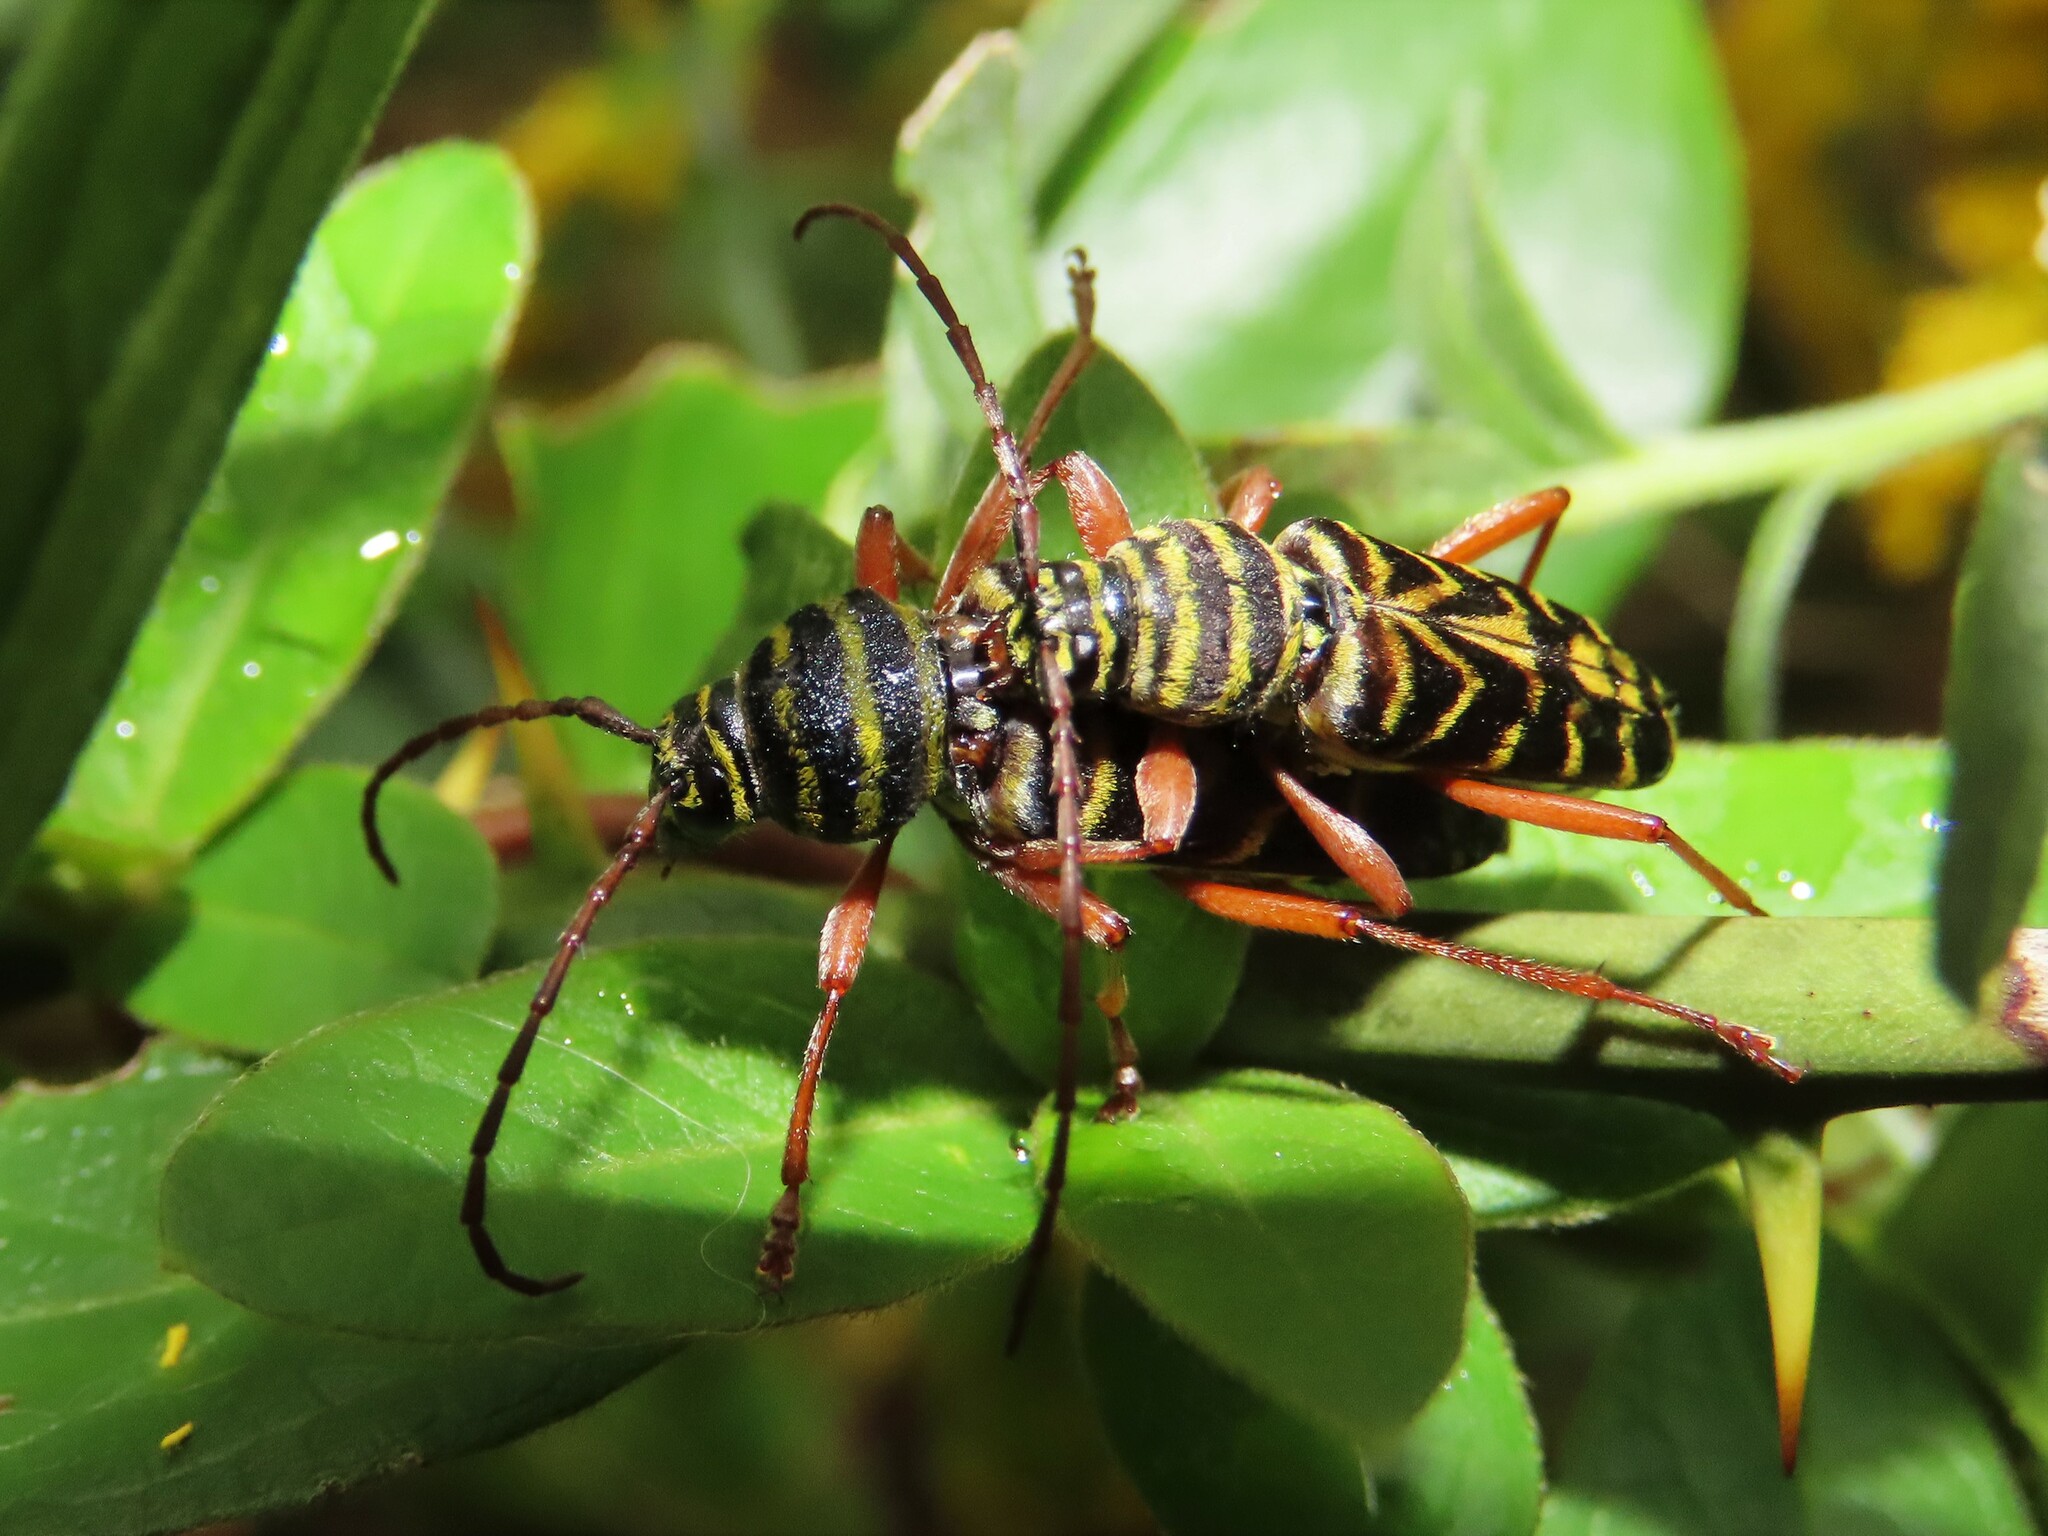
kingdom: Animalia
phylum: Arthropoda
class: Insecta
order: Coleoptera
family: Cerambycidae
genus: Megacyllene
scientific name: Megacyllene robiniae
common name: Locust borer
